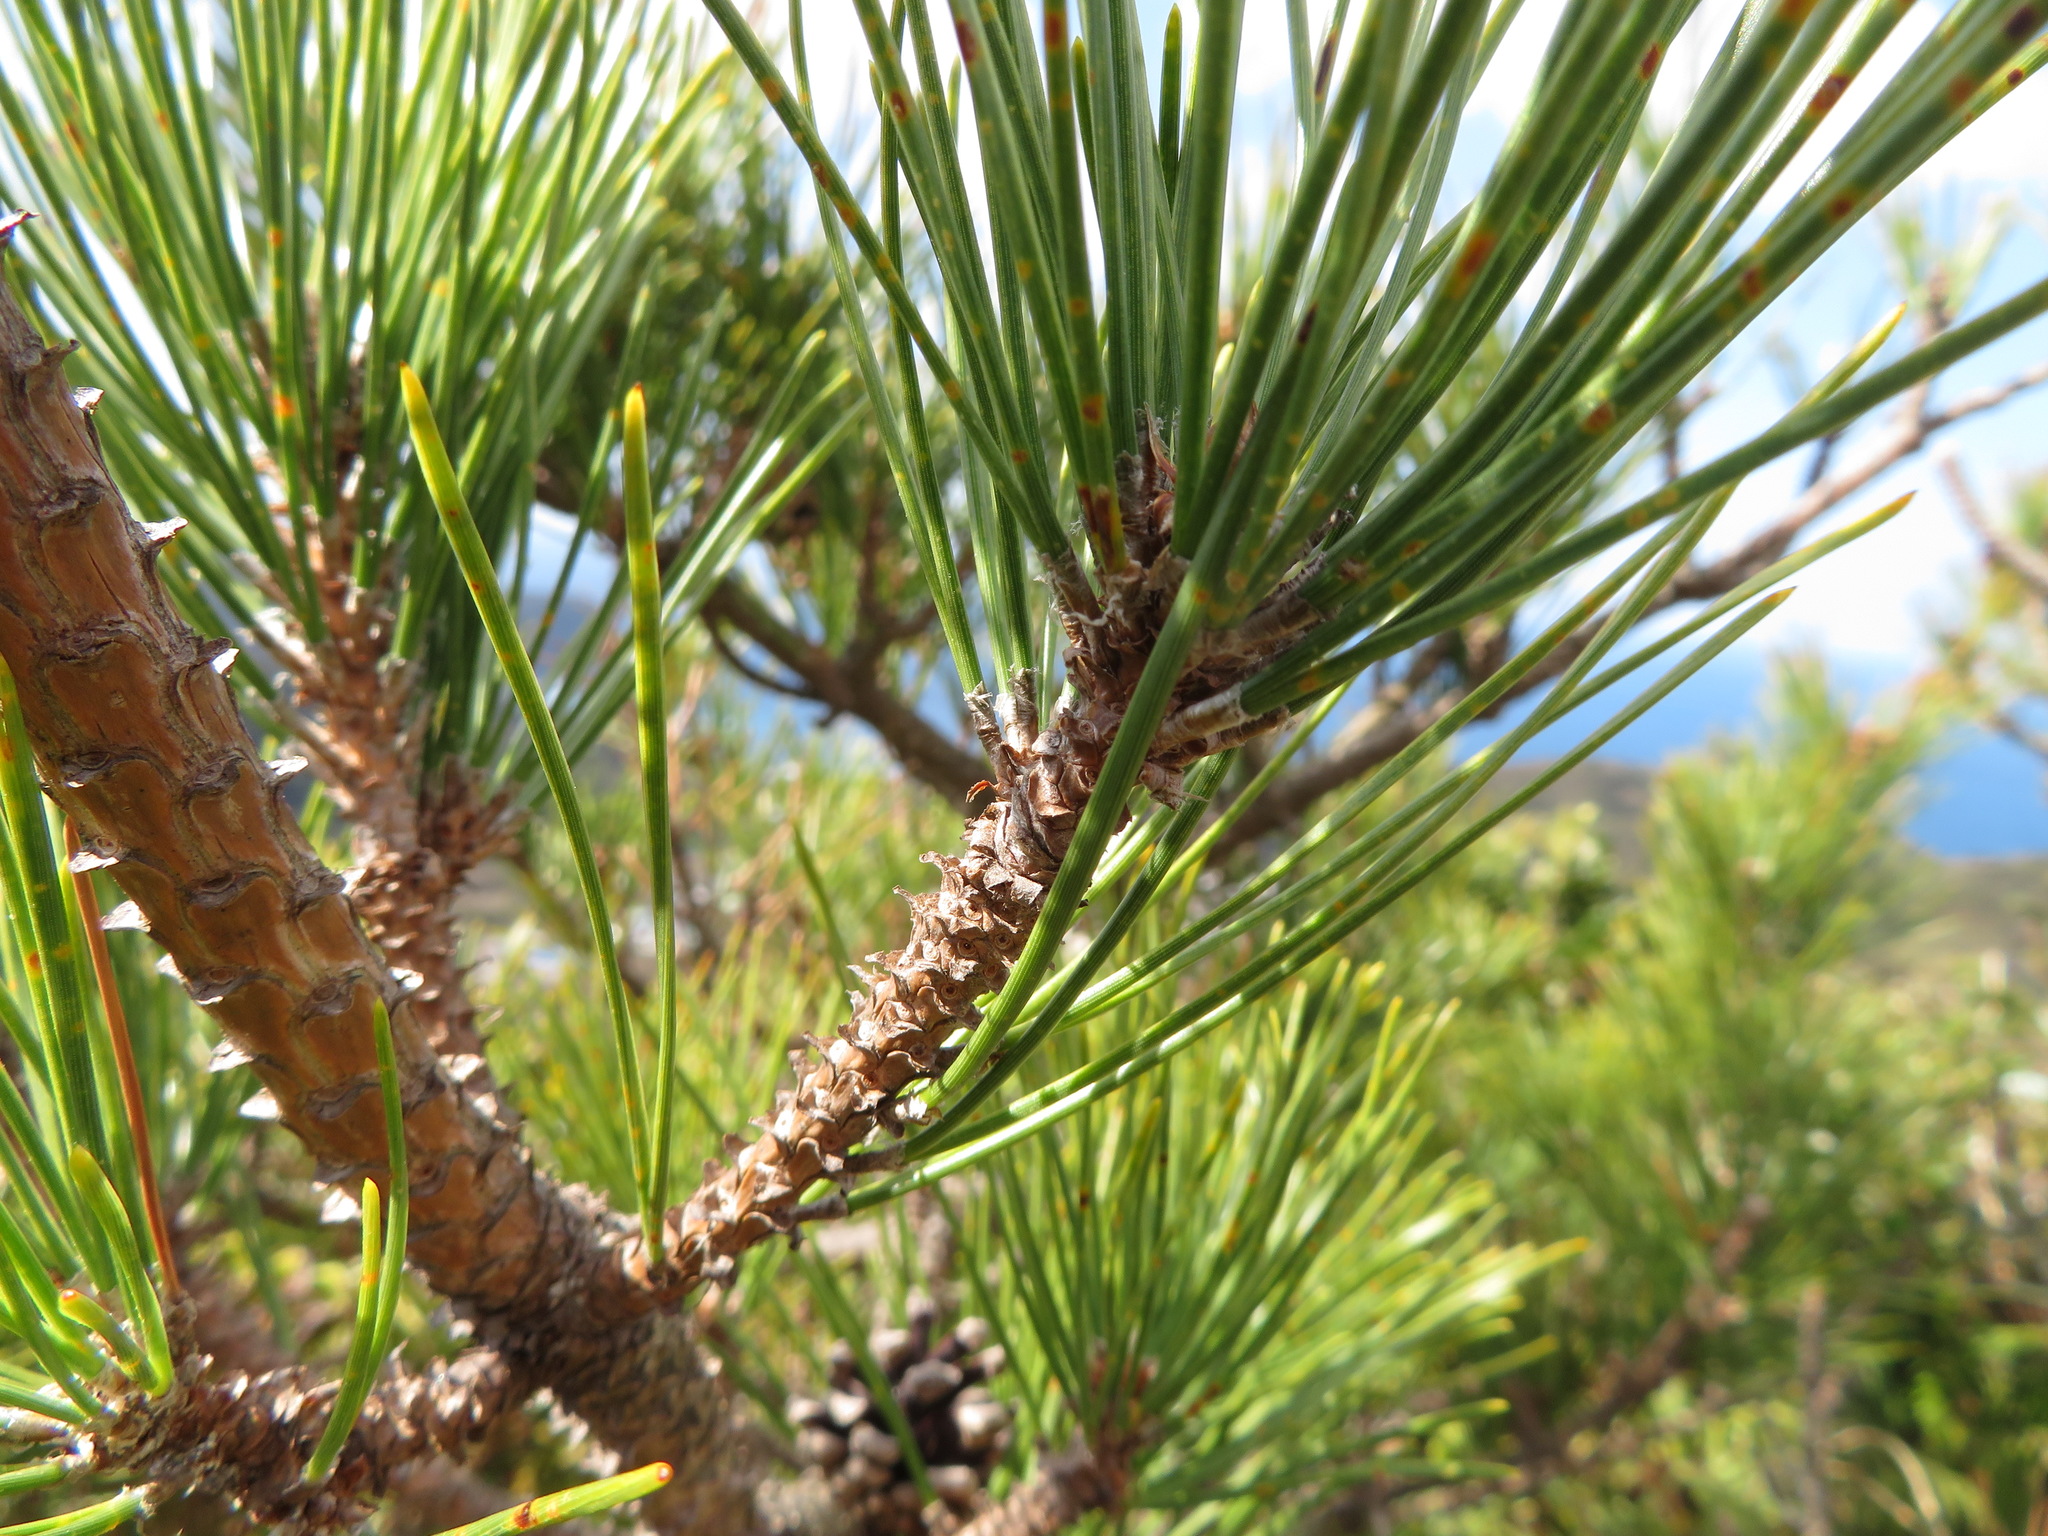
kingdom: Plantae
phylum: Tracheophyta
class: Pinopsida
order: Pinales
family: Pinaceae
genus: Pinus
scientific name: Pinus thunbergii
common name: Japanese black pine
